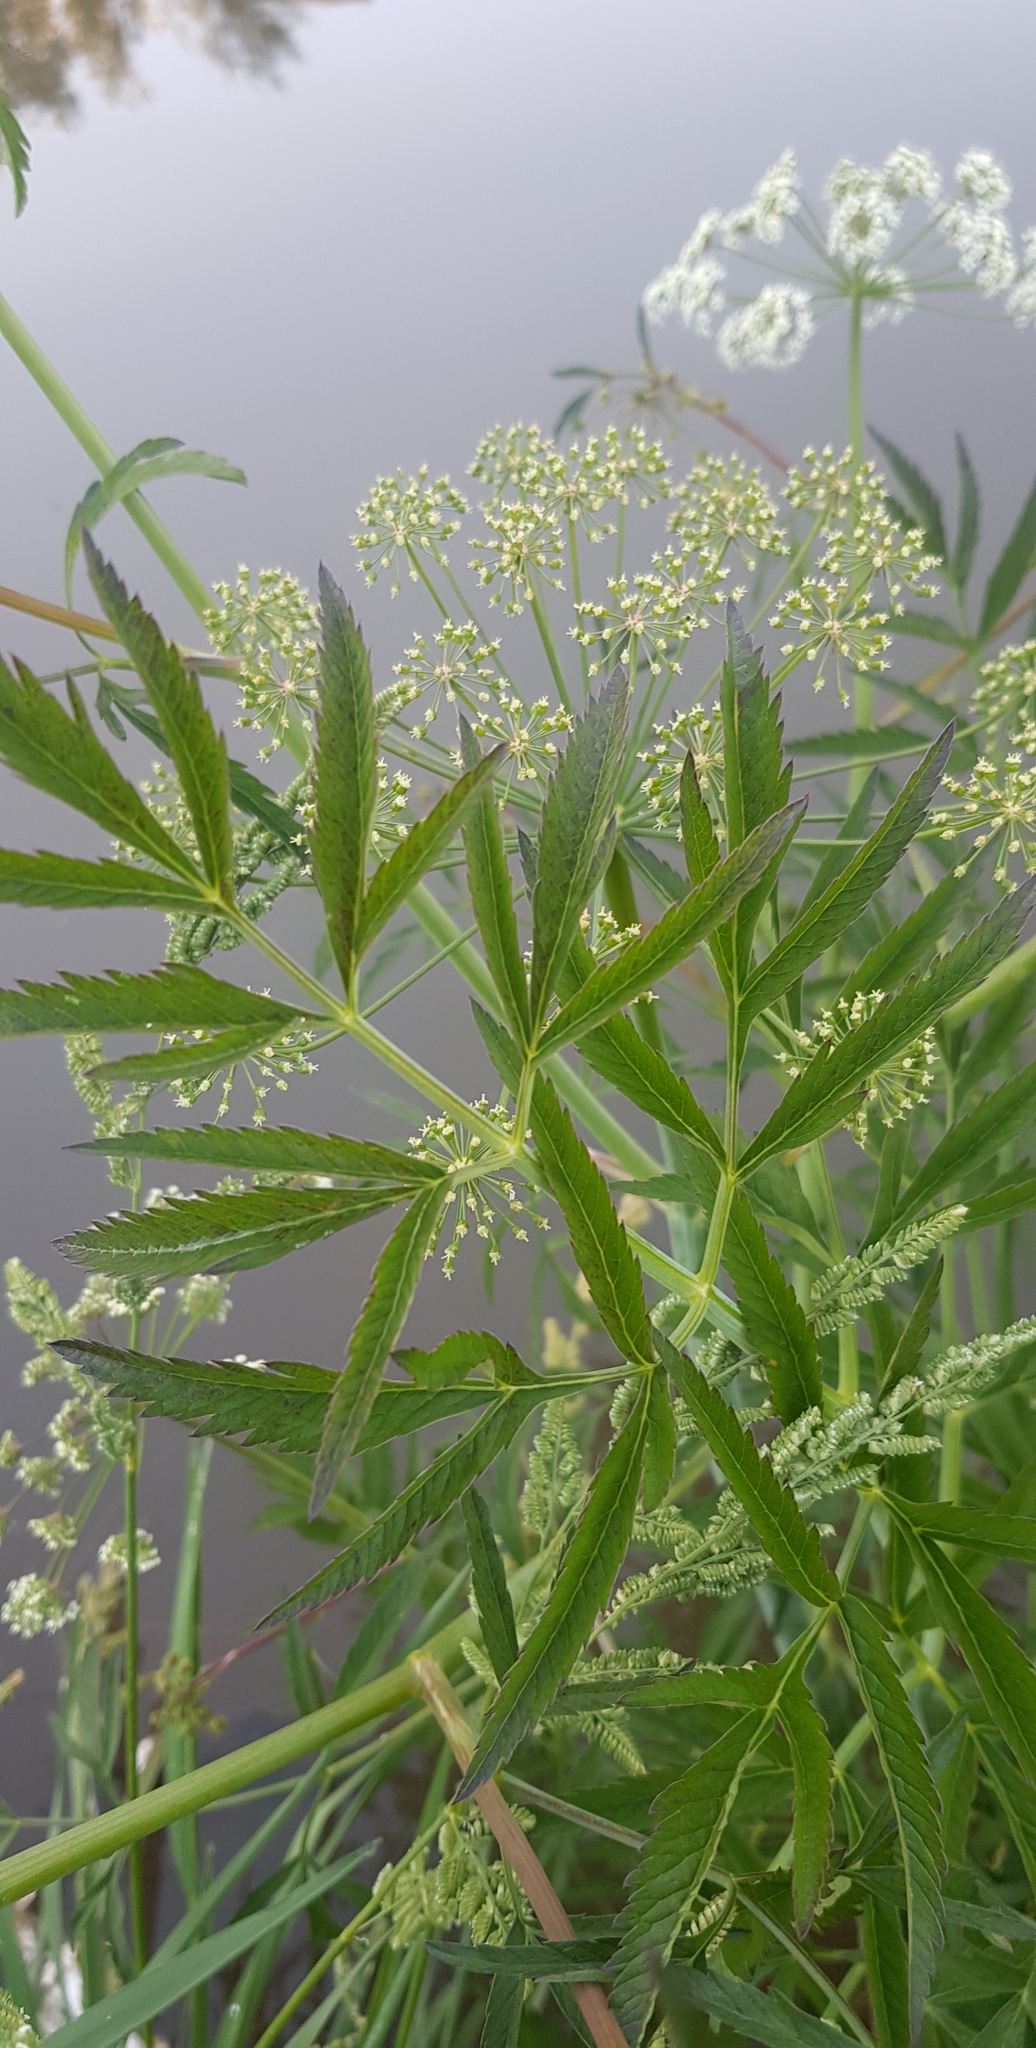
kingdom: Plantae
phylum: Tracheophyta
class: Magnoliopsida
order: Apiales
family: Apiaceae
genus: Cicuta
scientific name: Cicuta virosa
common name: Cowbane
